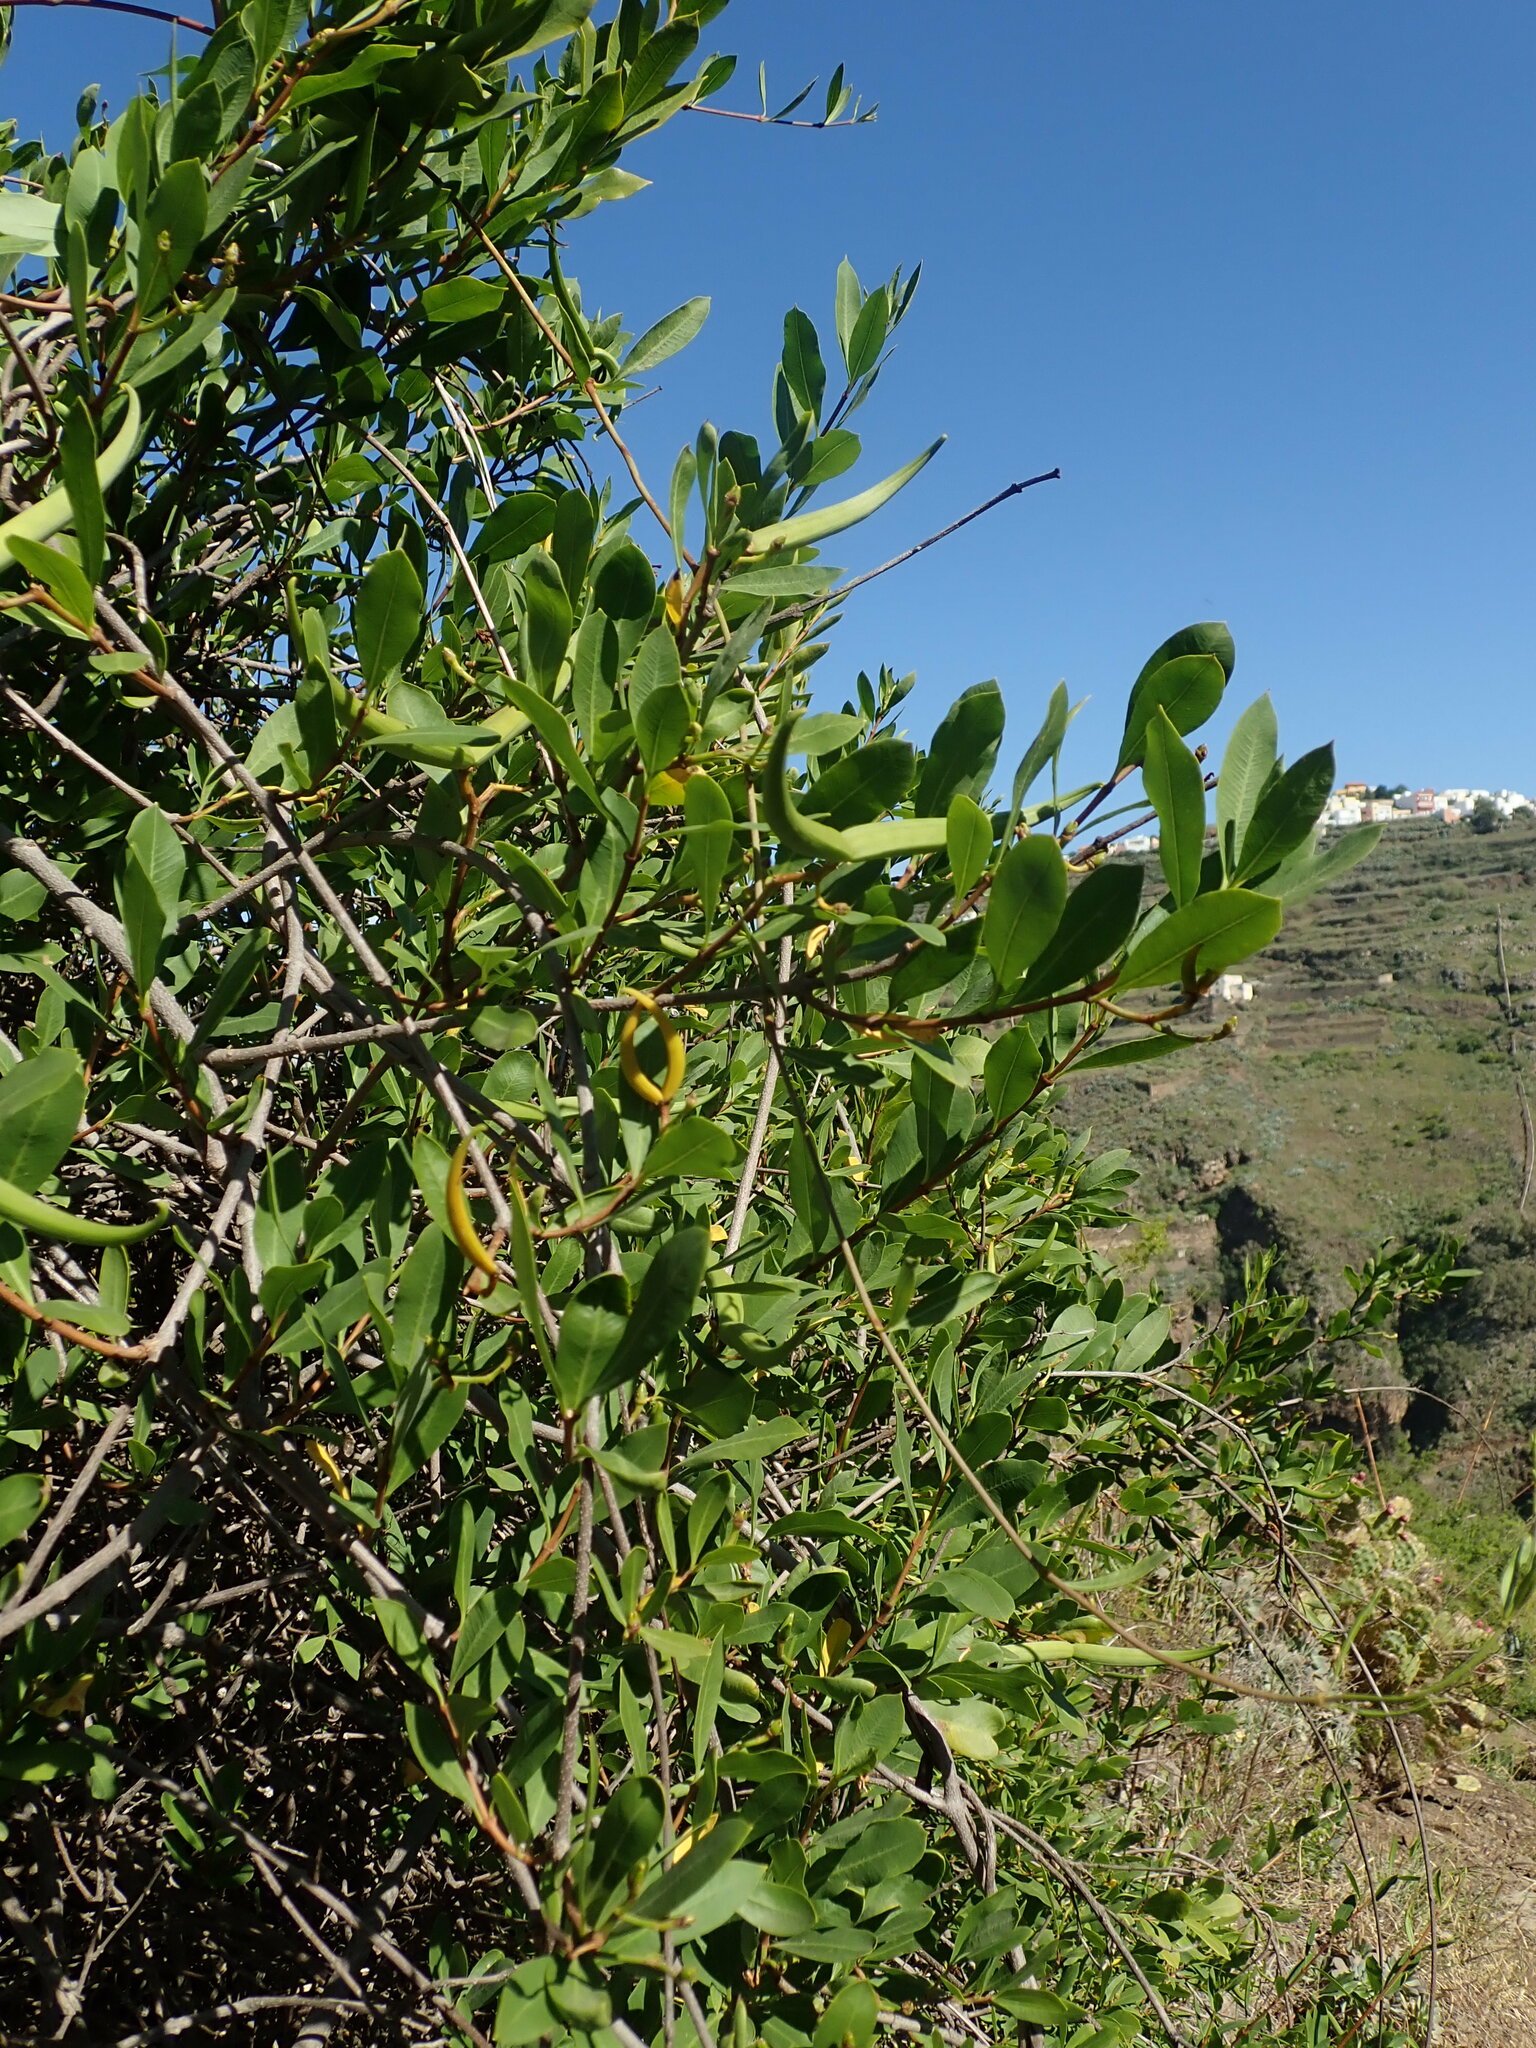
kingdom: Plantae
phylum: Tracheophyta
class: Magnoliopsida
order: Gentianales
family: Apocynaceae
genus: Periploca
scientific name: Periploca laevigata
